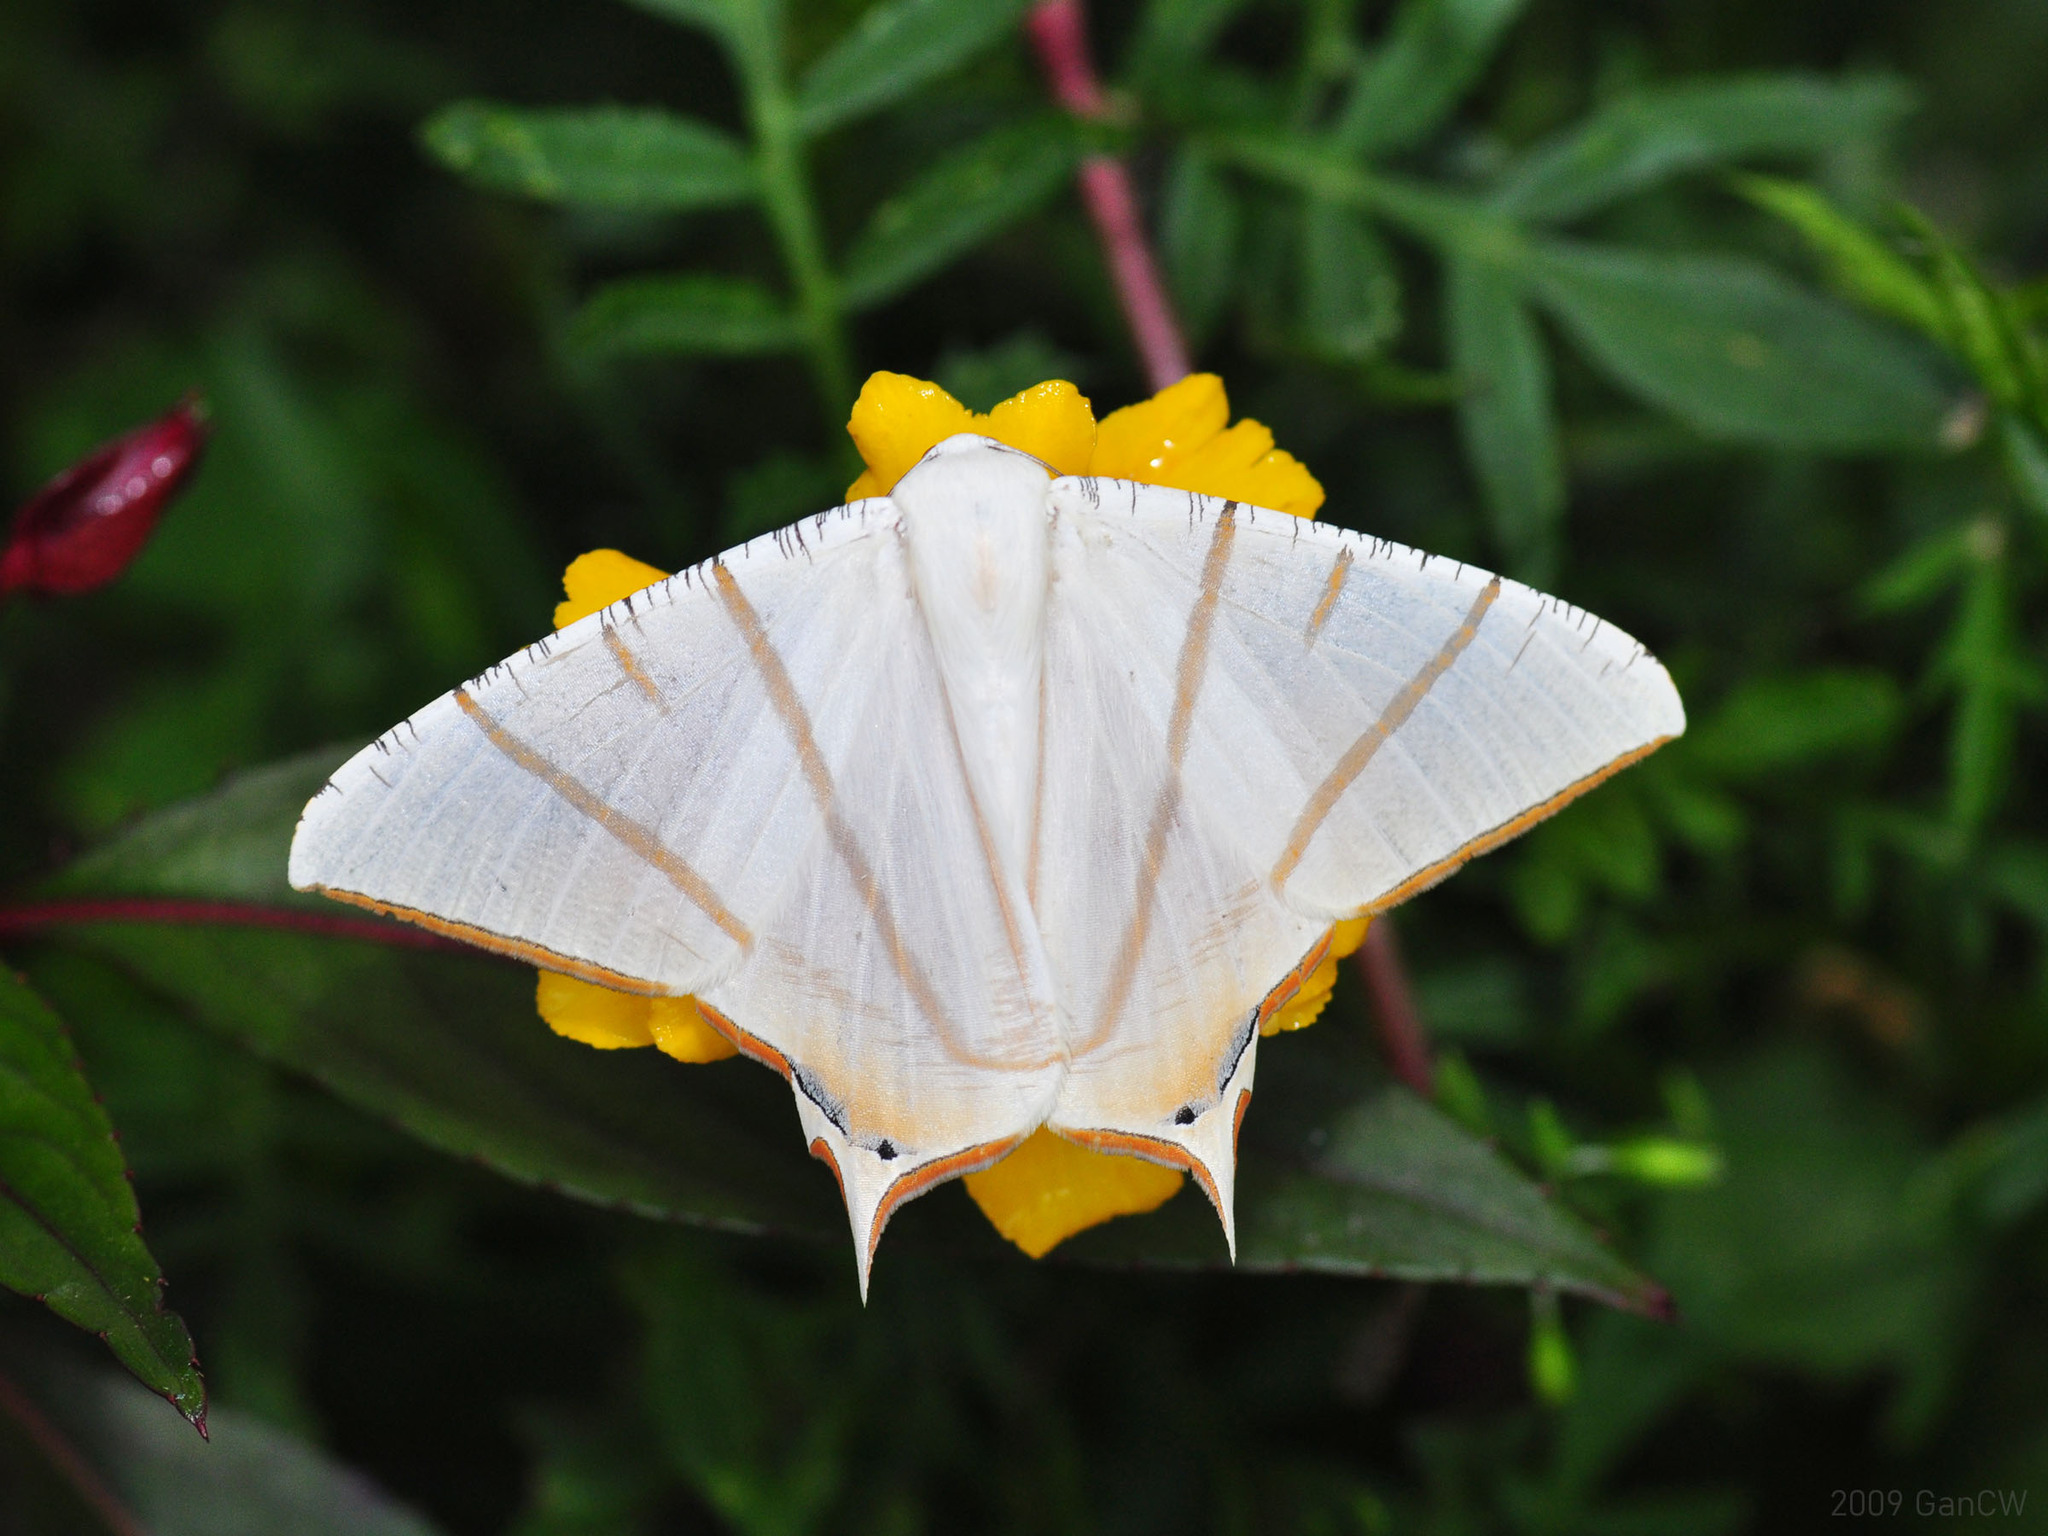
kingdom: Animalia
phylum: Arthropoda
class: Insecta
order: Lepidoptera
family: Geometridae
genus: Ourapteryx
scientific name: Ourapteryx claretta
